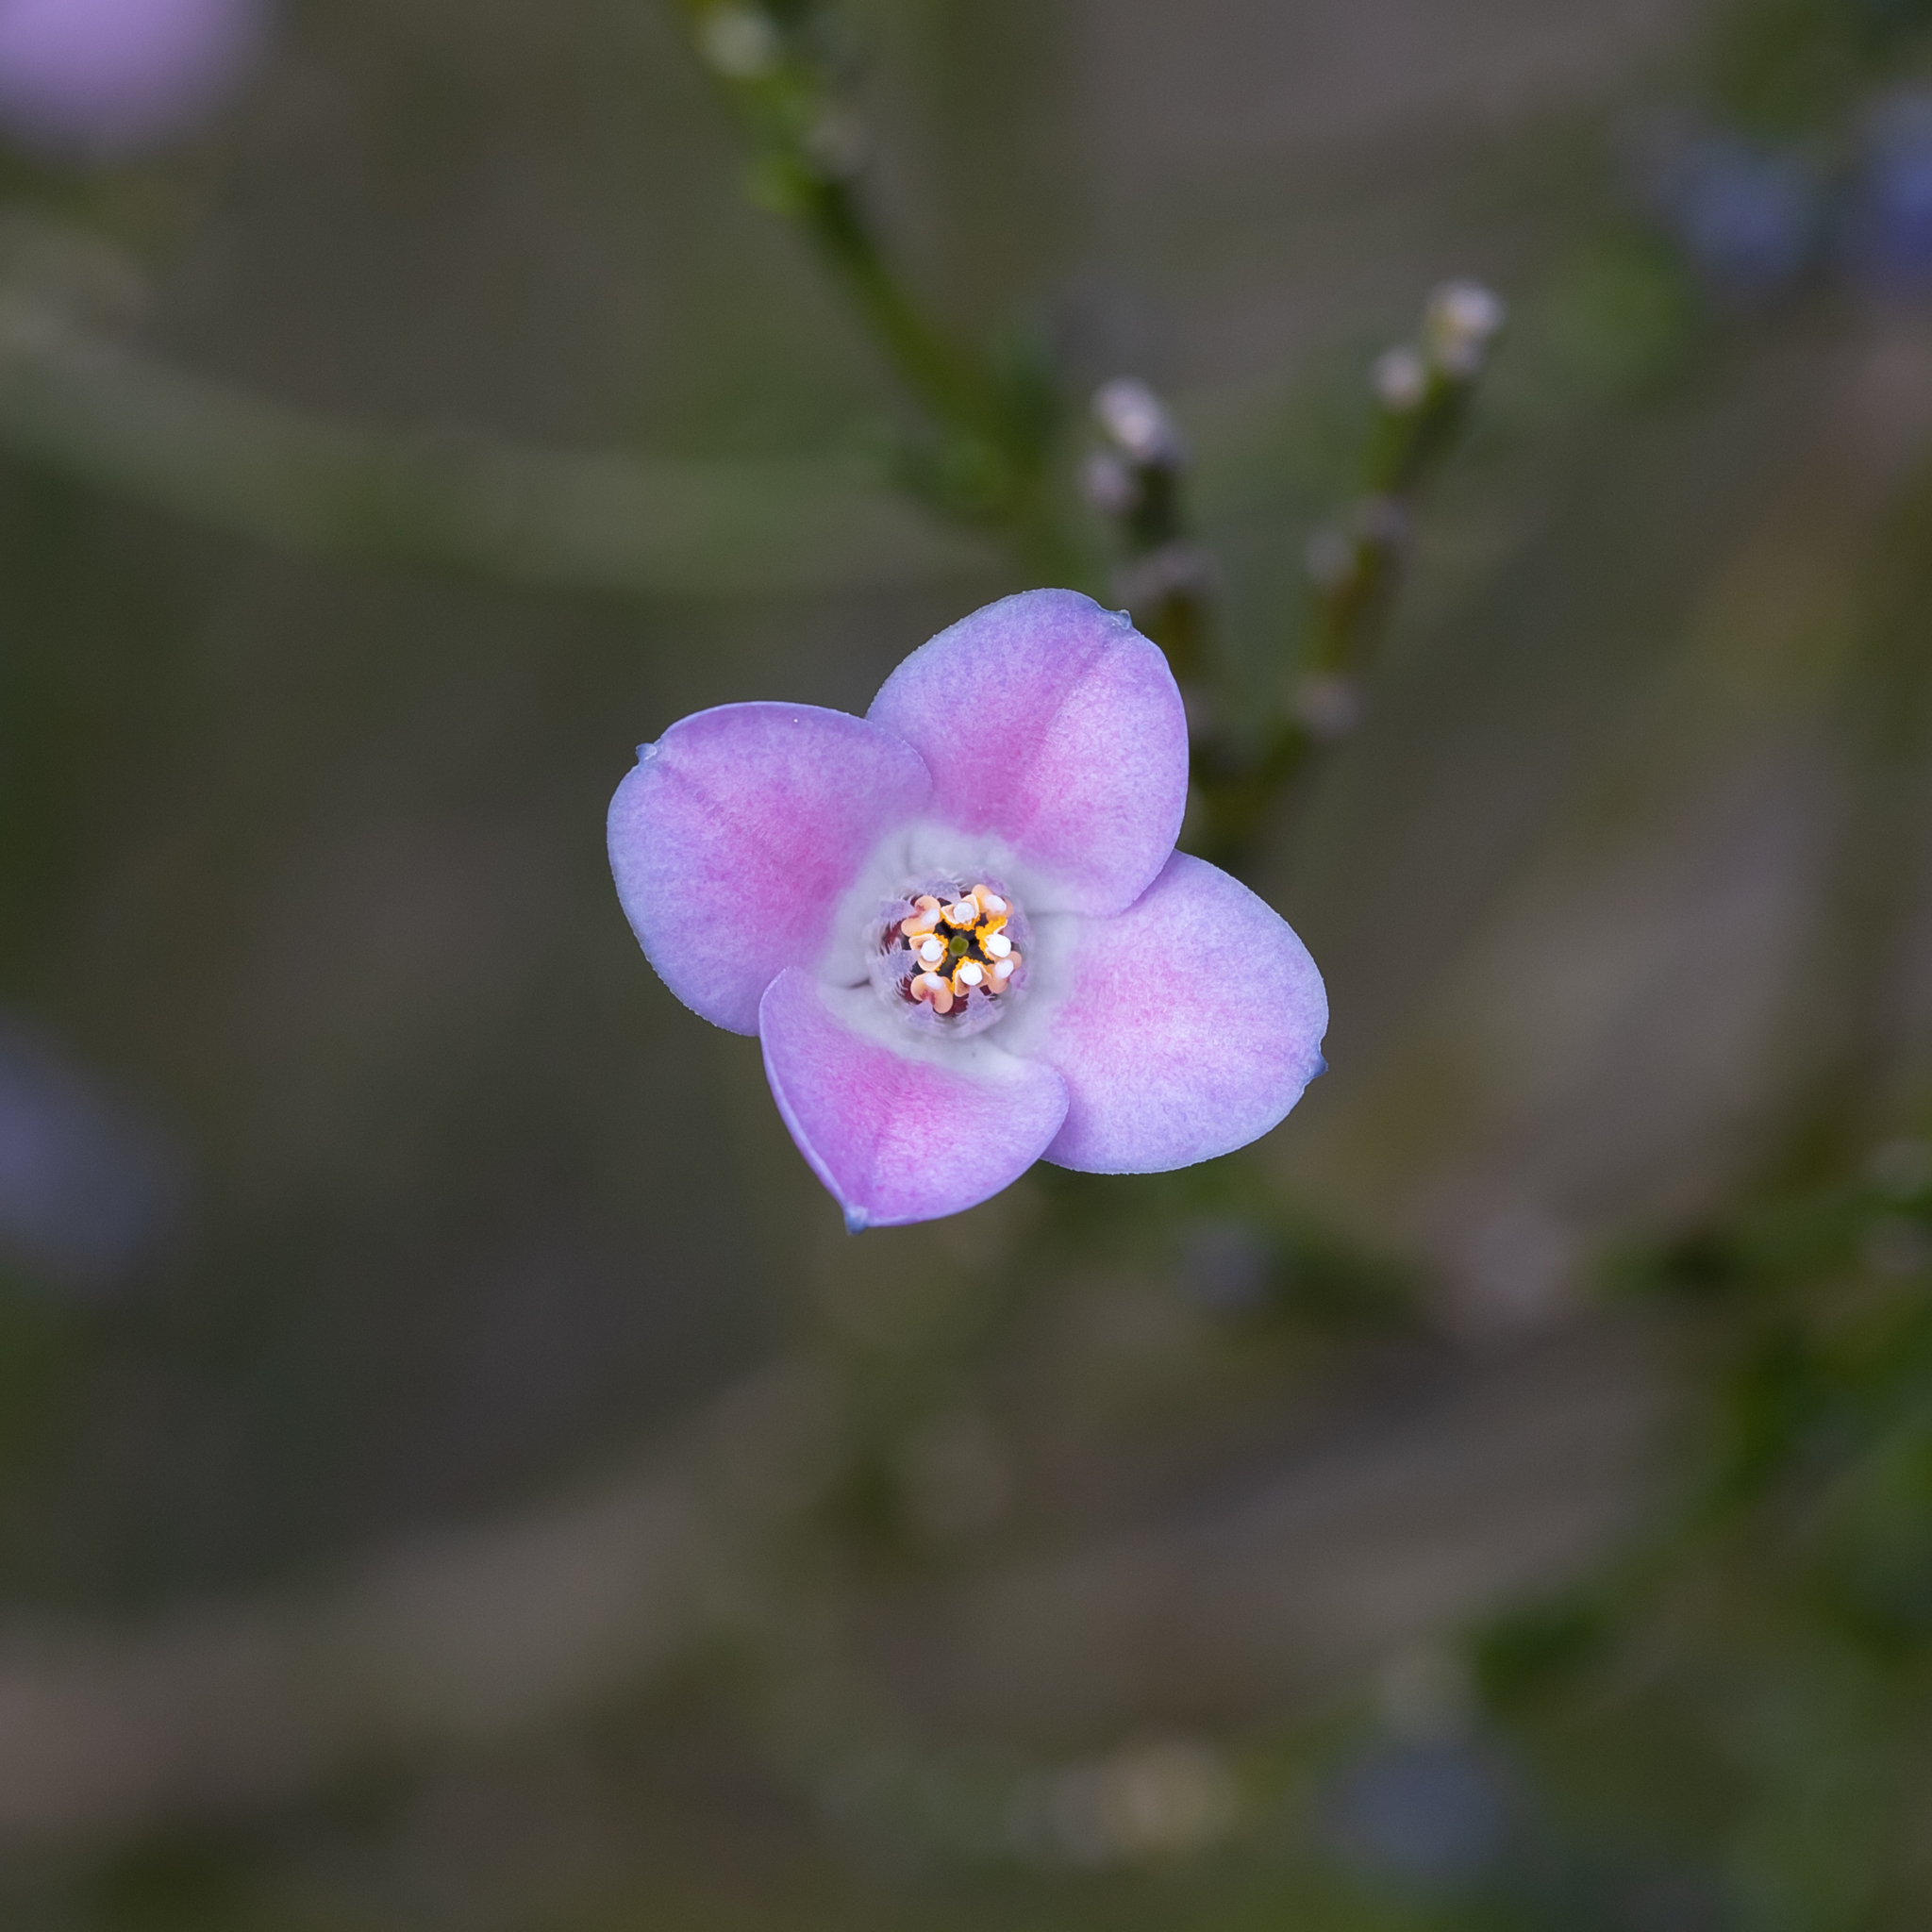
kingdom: Plantae
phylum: Tracheophyta
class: Magnoliopsida
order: Sapindales
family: Rutaceae
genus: Cyanothamnus
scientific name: Cyanothamnus coerulescens
